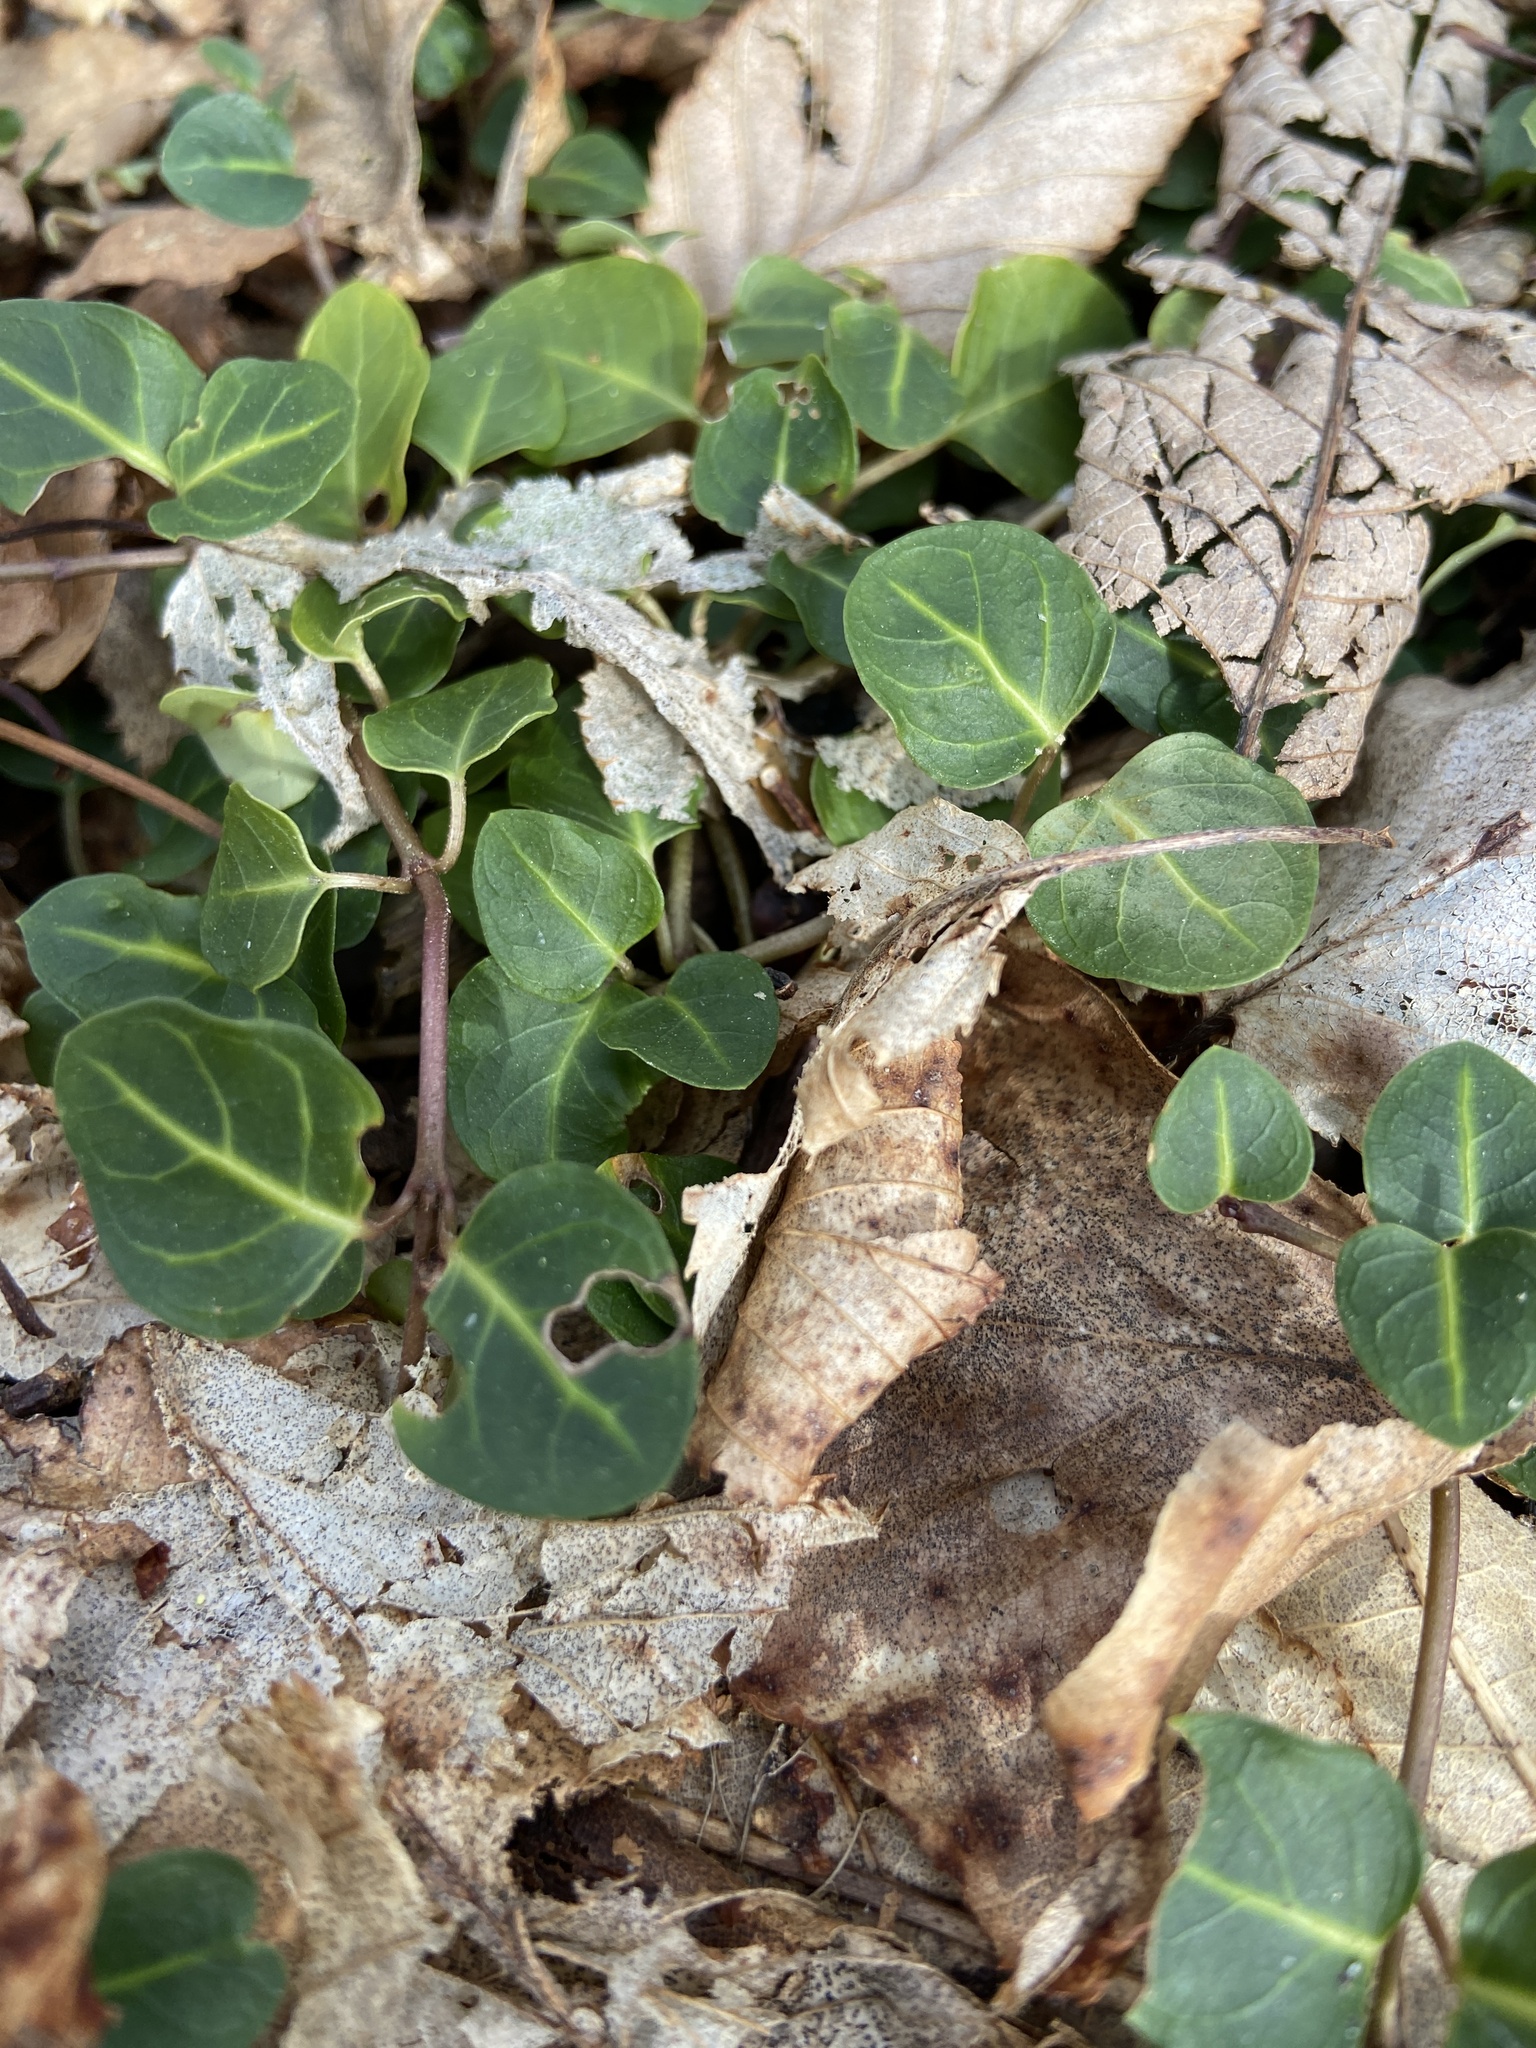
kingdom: Plantae
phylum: Tracheophyta
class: Magnoliopsida
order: Gentianales
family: Rubiaceae
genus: Mitchella
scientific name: Mitchella repens
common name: Partridge-berry
